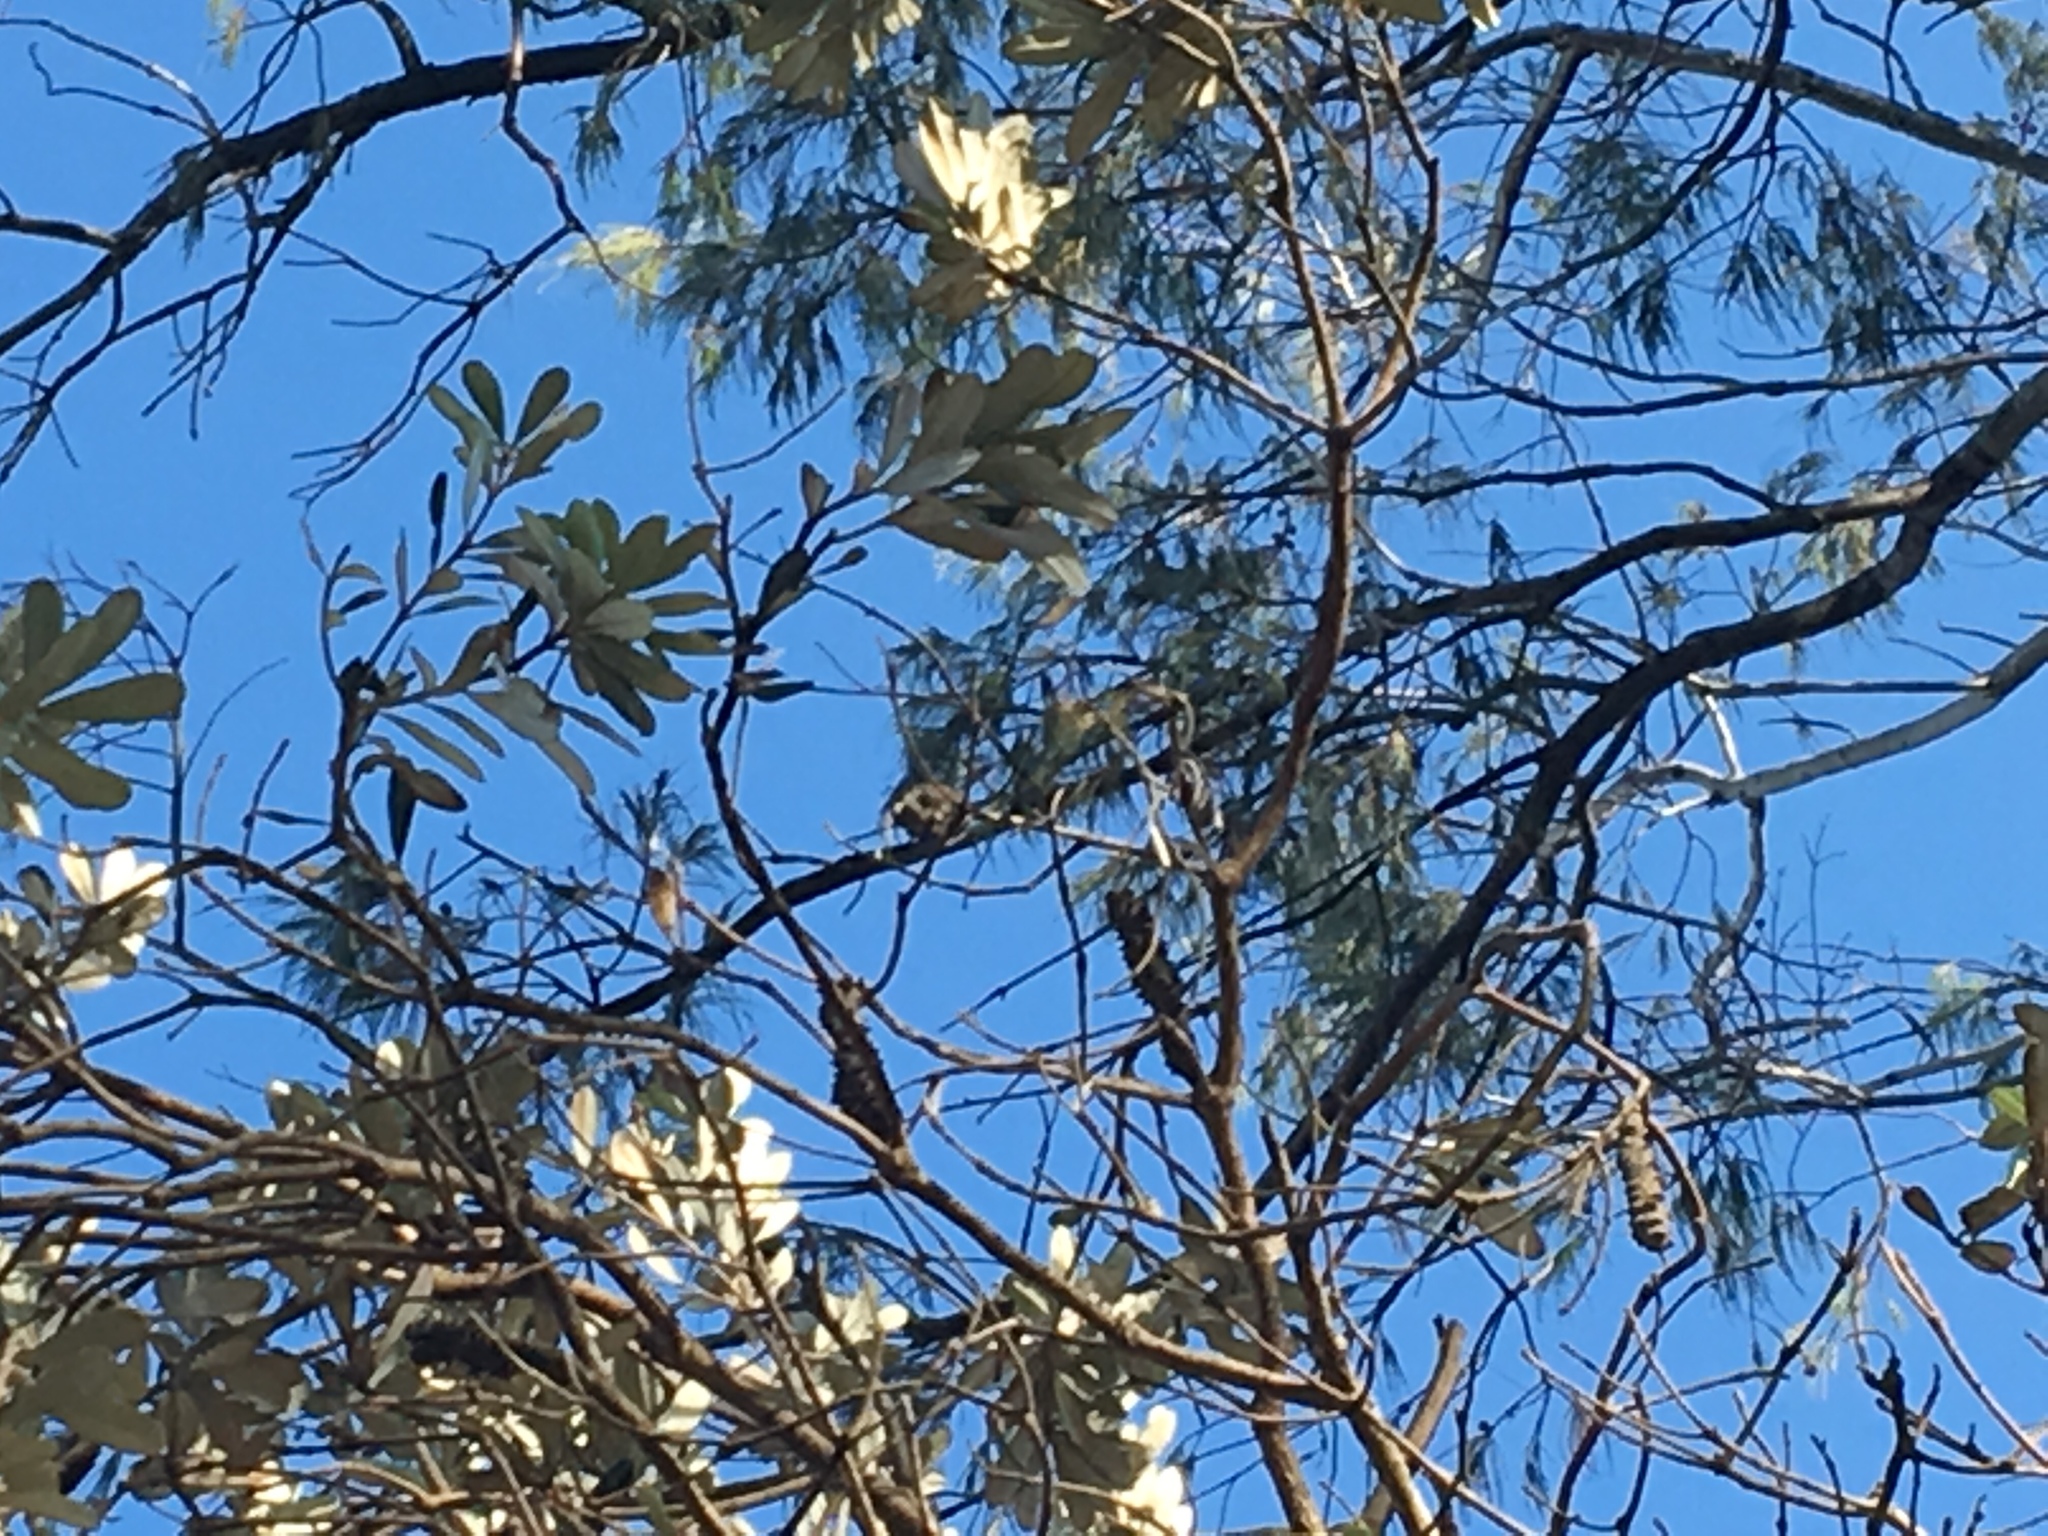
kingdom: Plantae
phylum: Tracheophyta
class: Magnoliopsida
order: Proteales
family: Proteaceae
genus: Banksia
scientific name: Banksia integrifolia
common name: White-honeysuckle
